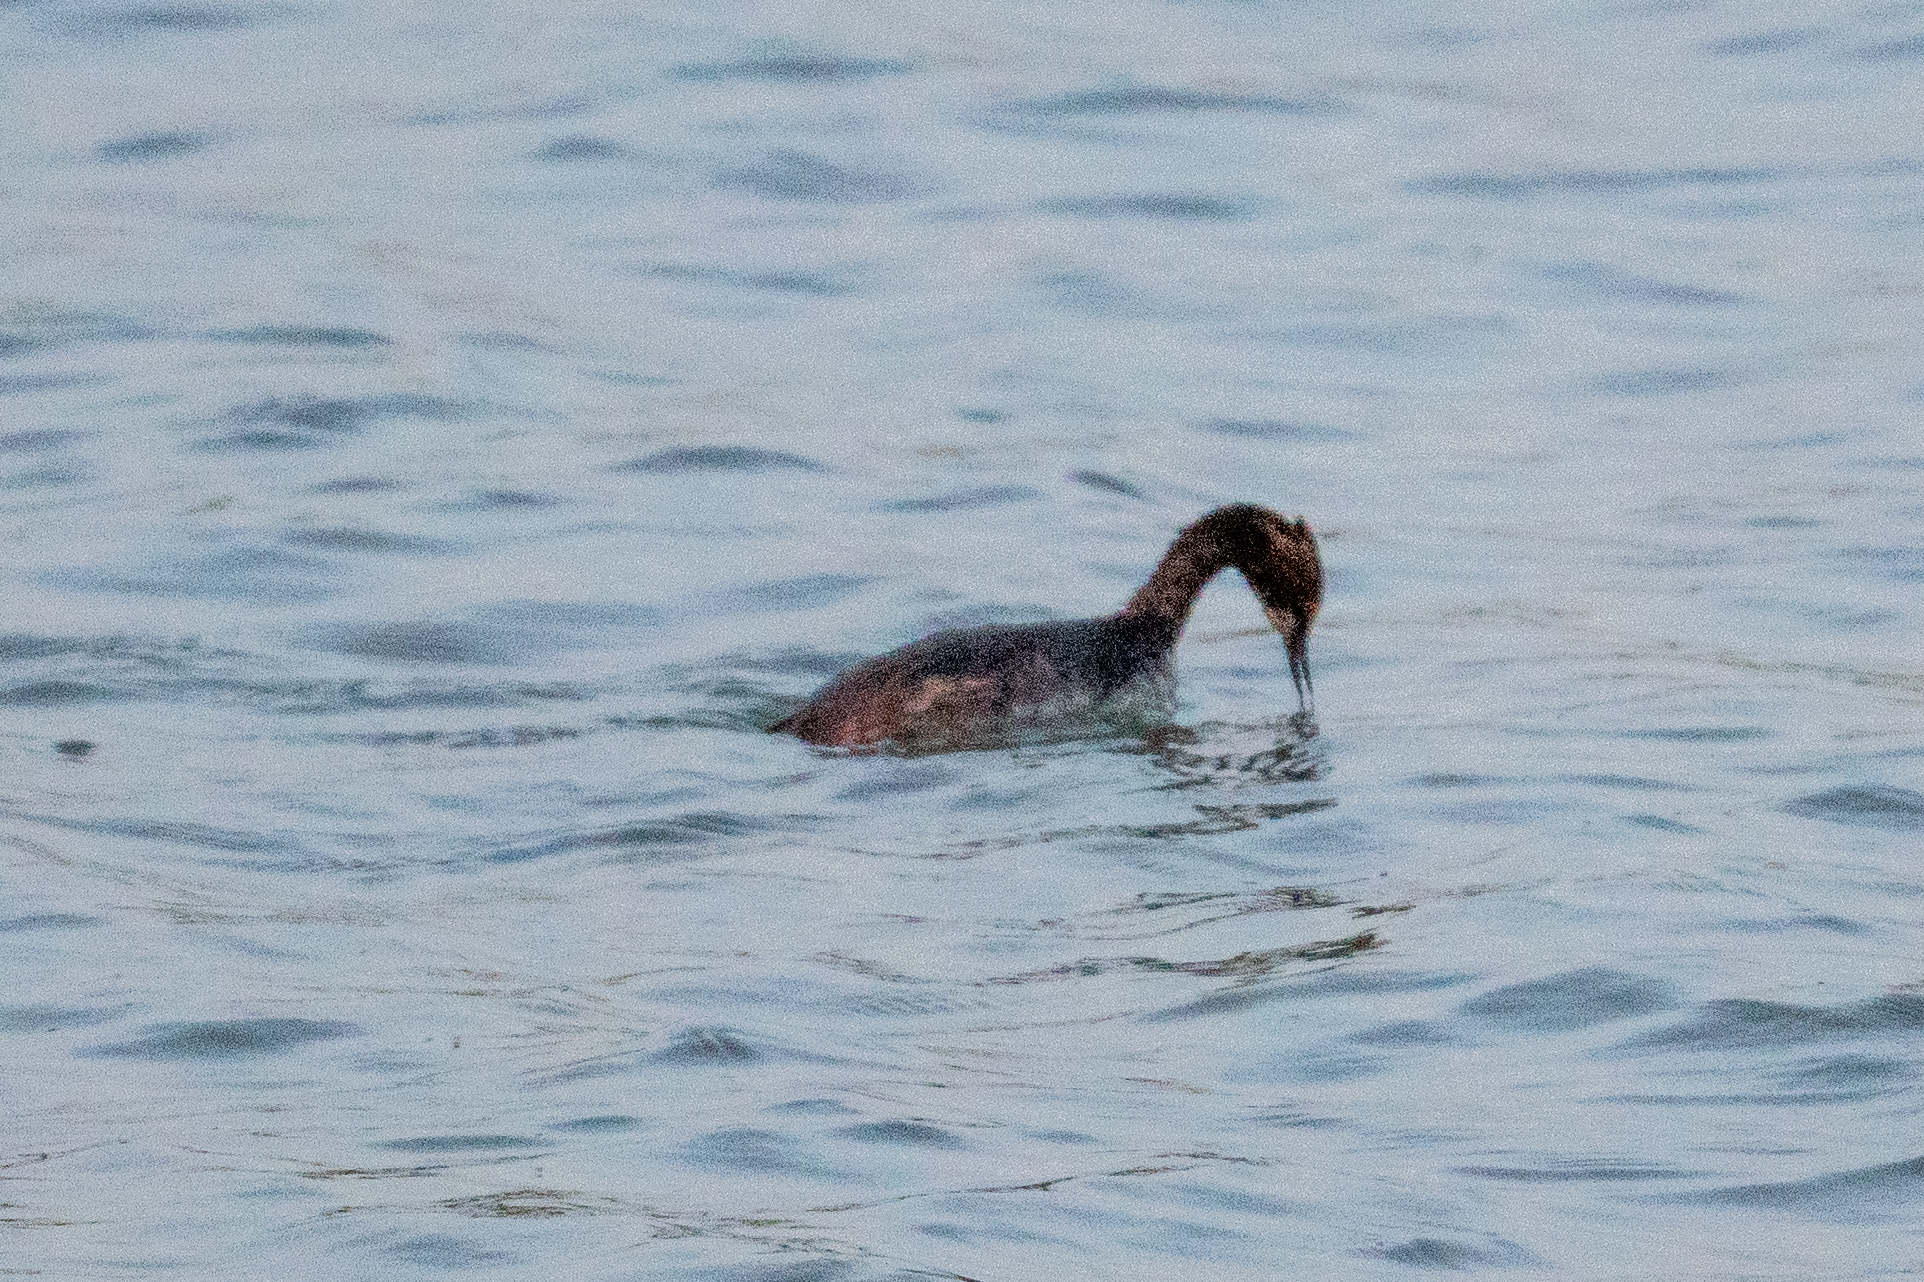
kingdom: Animalia
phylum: Chordata
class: Aves
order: Podicipediformes
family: Podicipedidae
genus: Podiceps
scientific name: Podiceps nigricollis
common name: Black-necked grebe
